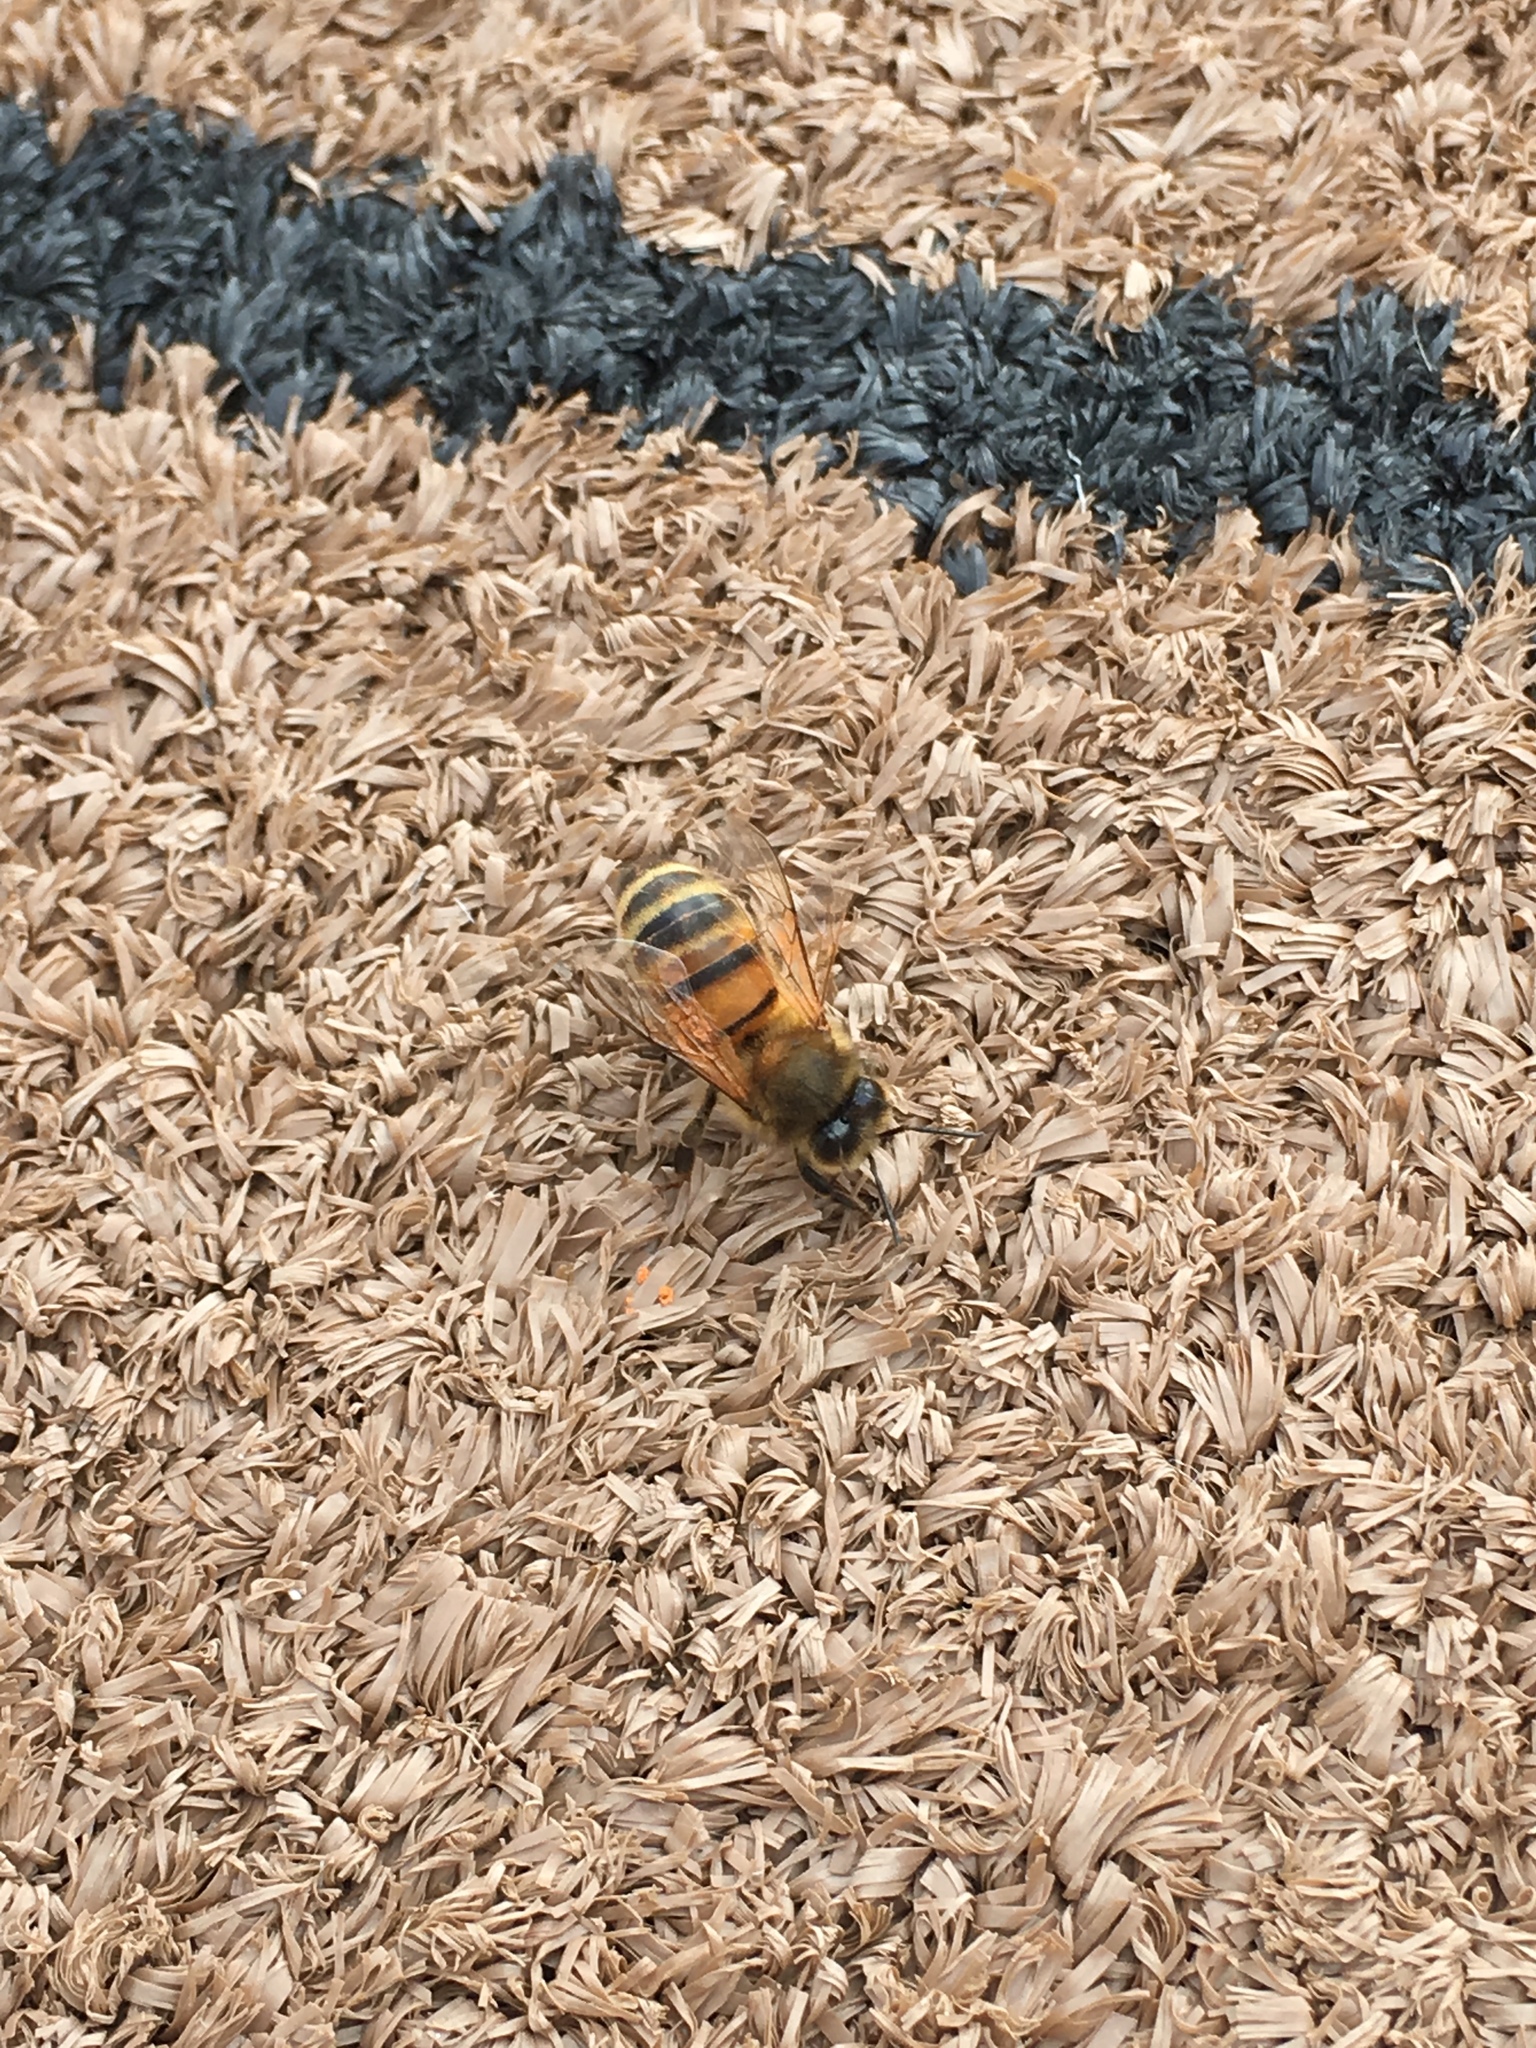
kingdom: Animalia
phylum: Arthropoda
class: Insecta
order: Hymenoptera
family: Apidae
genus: Apis
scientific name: Apis mellifera
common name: Honey bee
